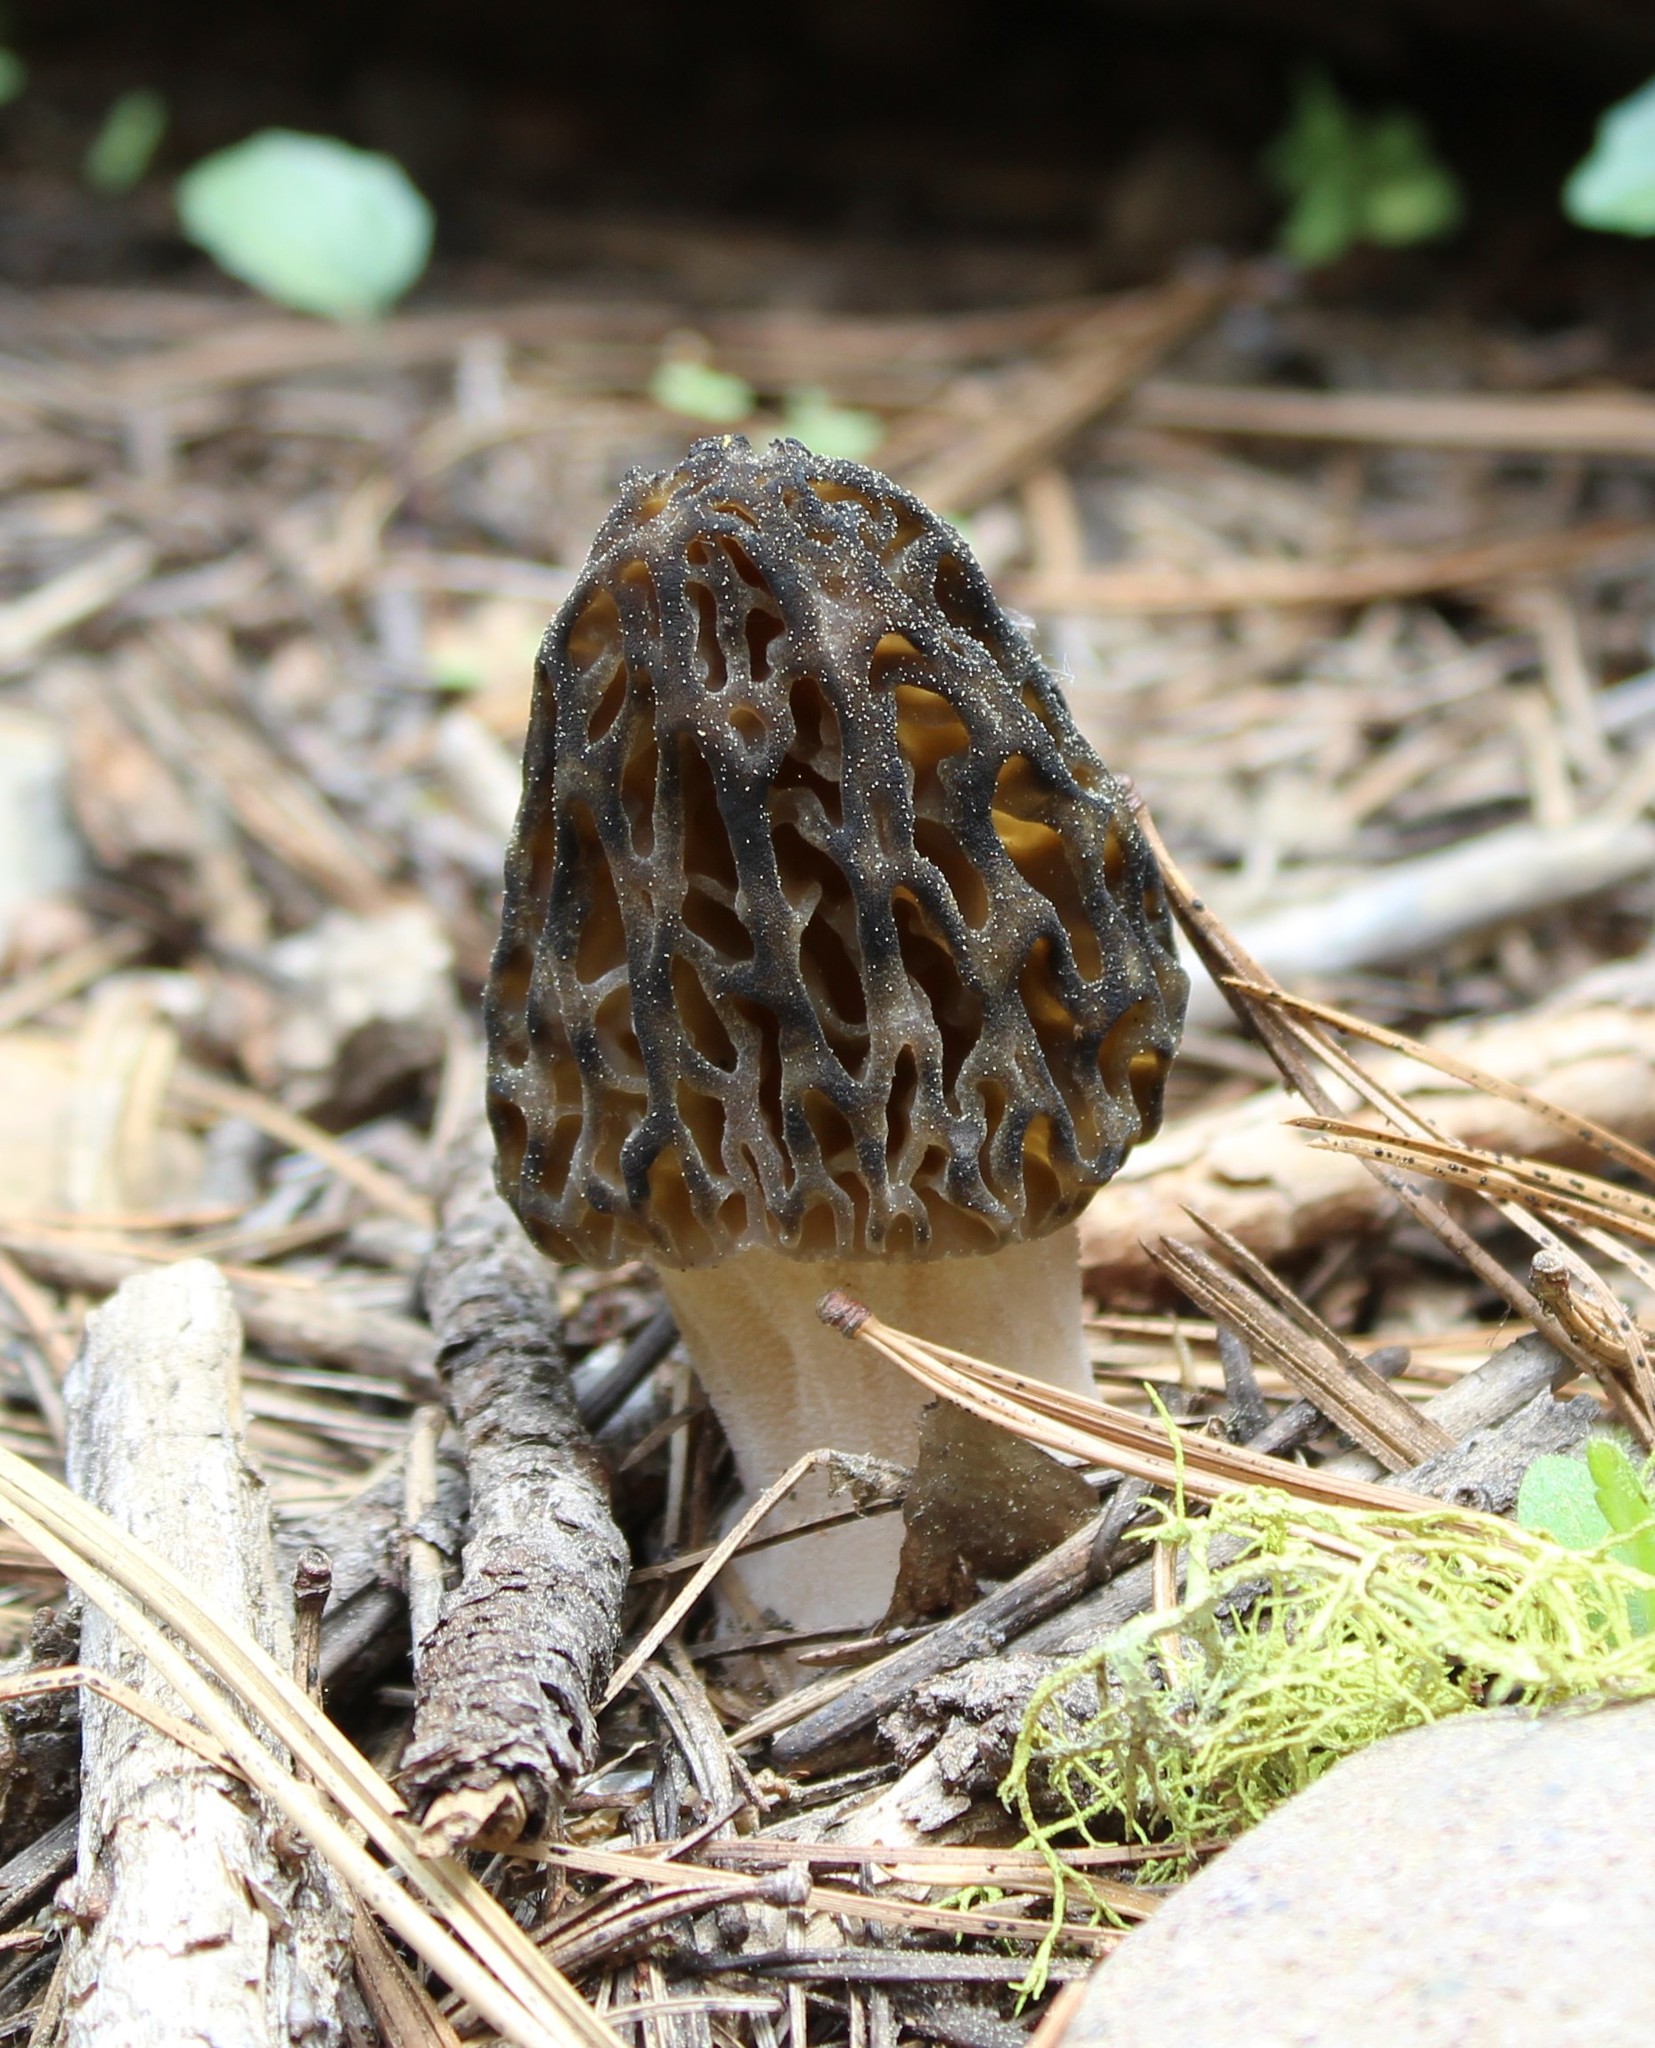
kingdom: Fungi
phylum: Ascomycota
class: Pezizomycetes
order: Pezizales
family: Morchellaceae
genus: Morchella
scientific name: Morchella snyderi
